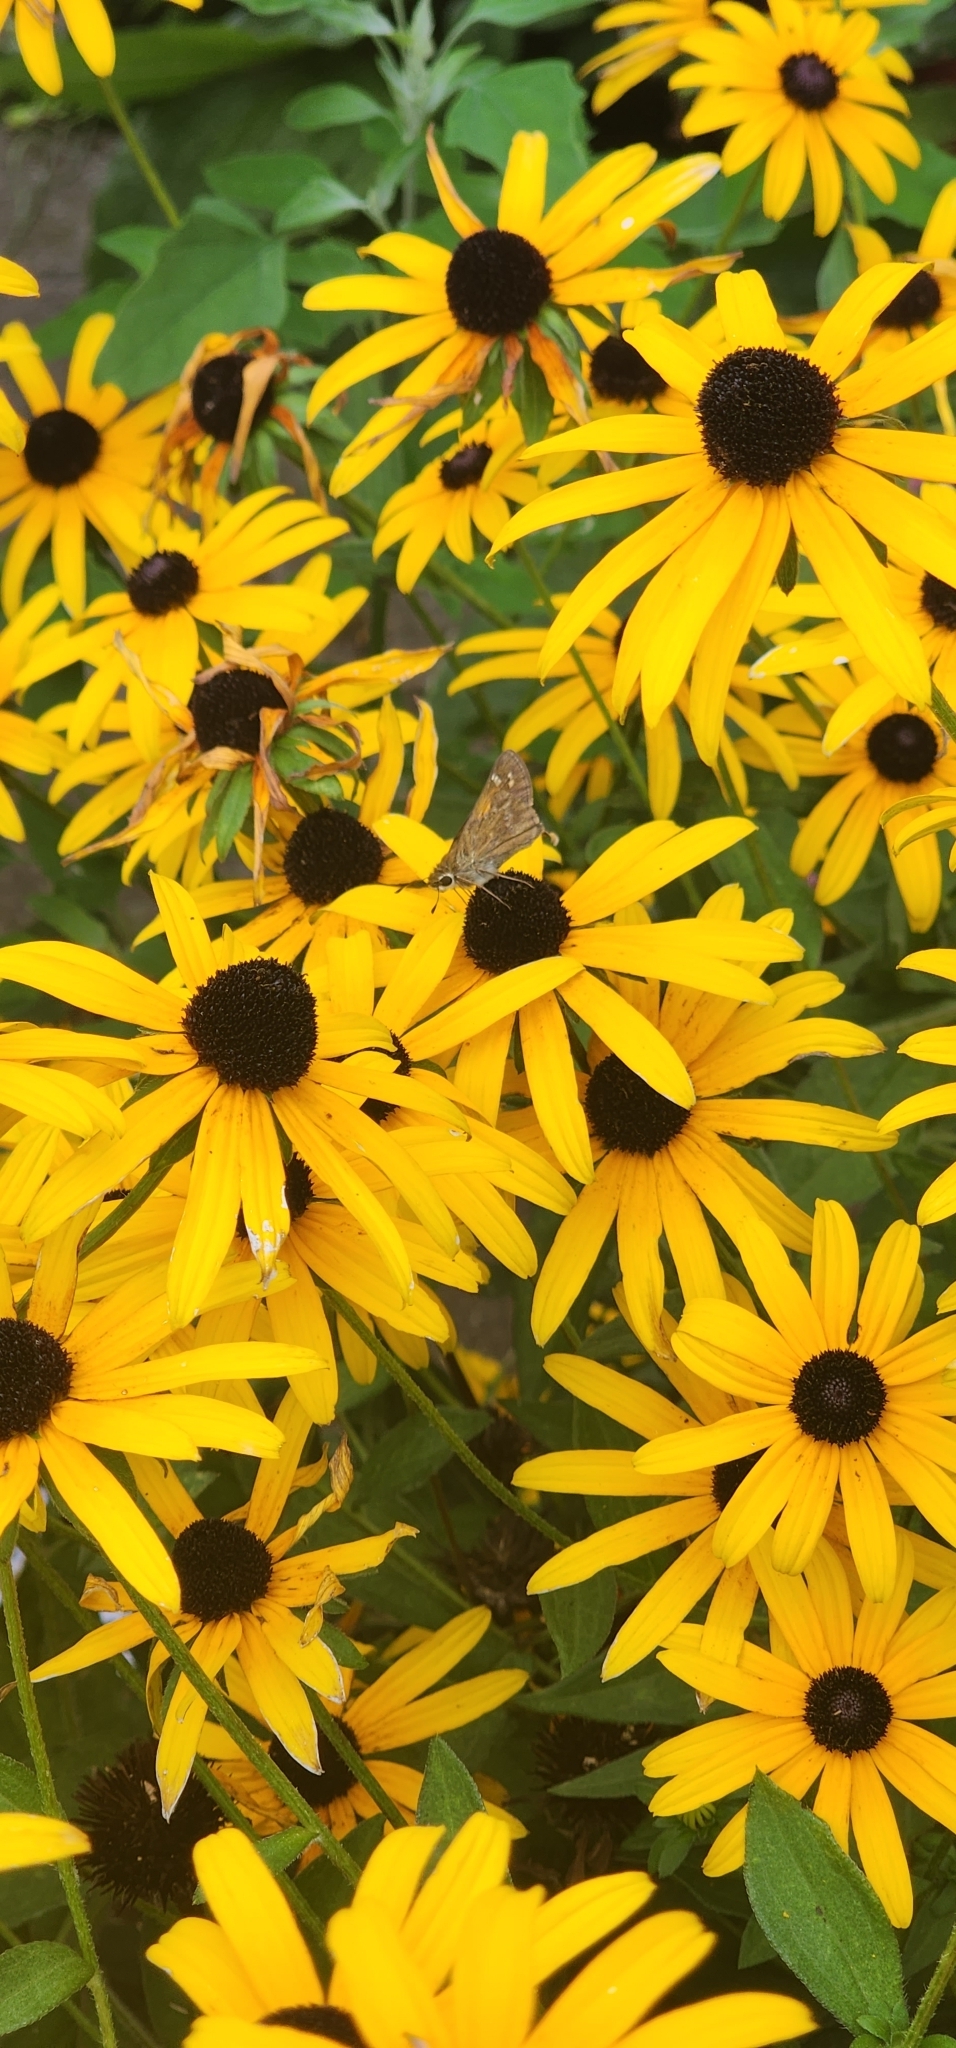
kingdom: Animalia
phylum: Arthropoda
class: Insecta
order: Lepidoptera
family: Hesperiidae
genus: Atalopedes
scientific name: Atalopedes
